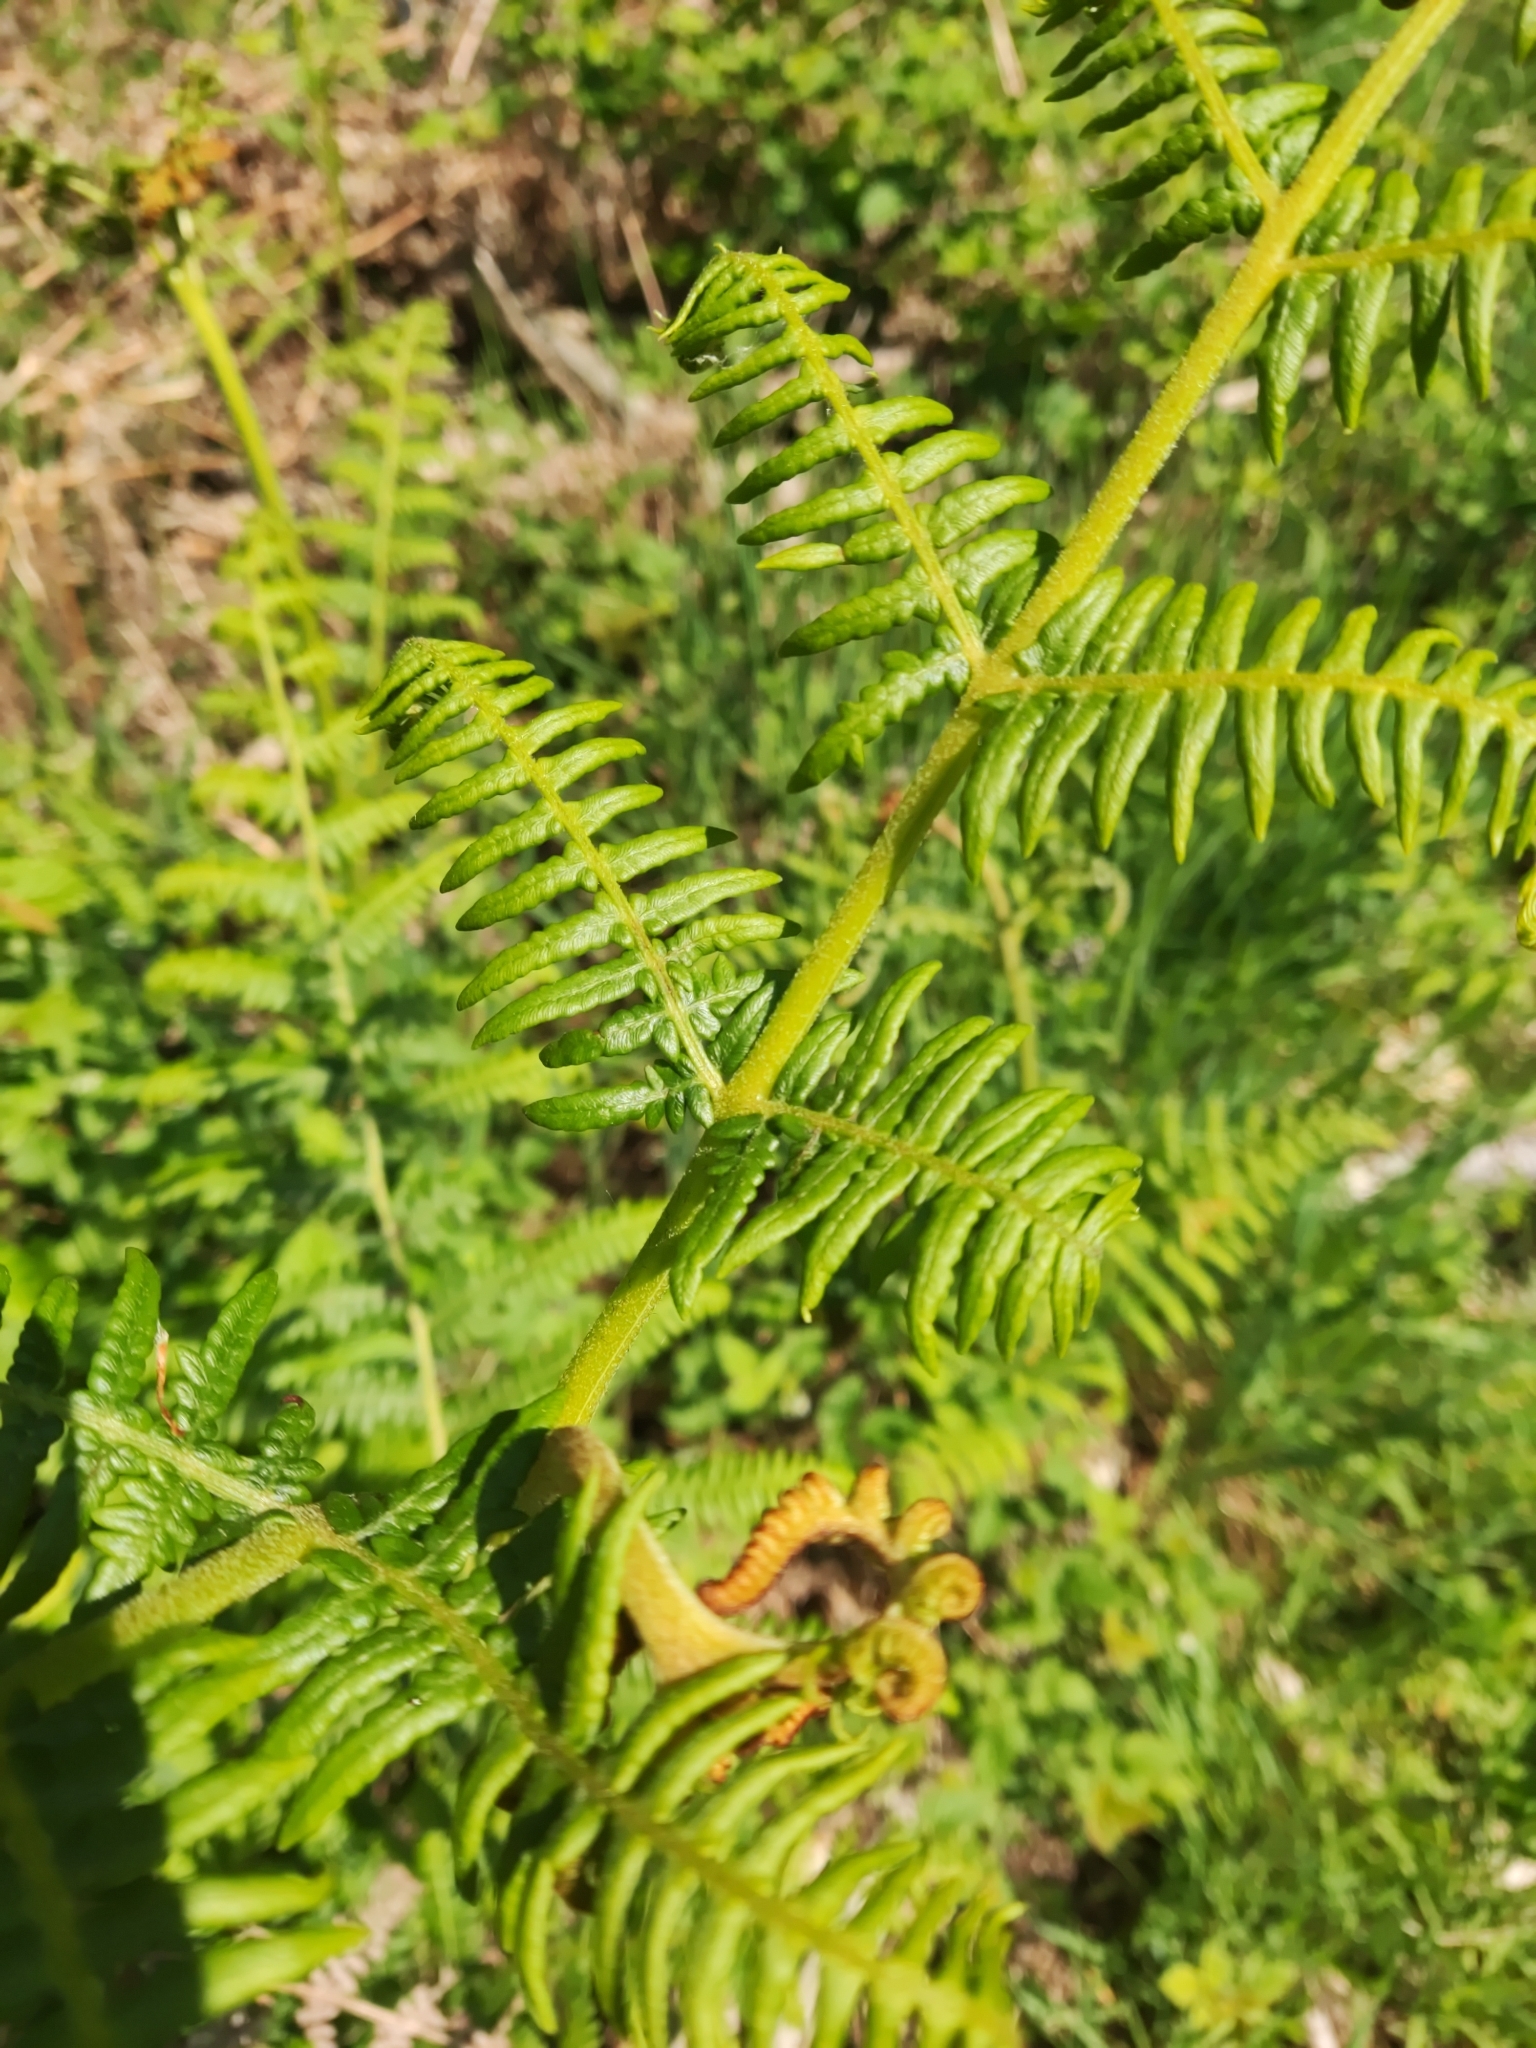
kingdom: Plantae
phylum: Tracheophyta
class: Polypodiopsida
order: Polypodiales
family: Dennstaedtiaceae
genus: Pteridium
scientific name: Pteridium aquilinum
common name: Bracken
